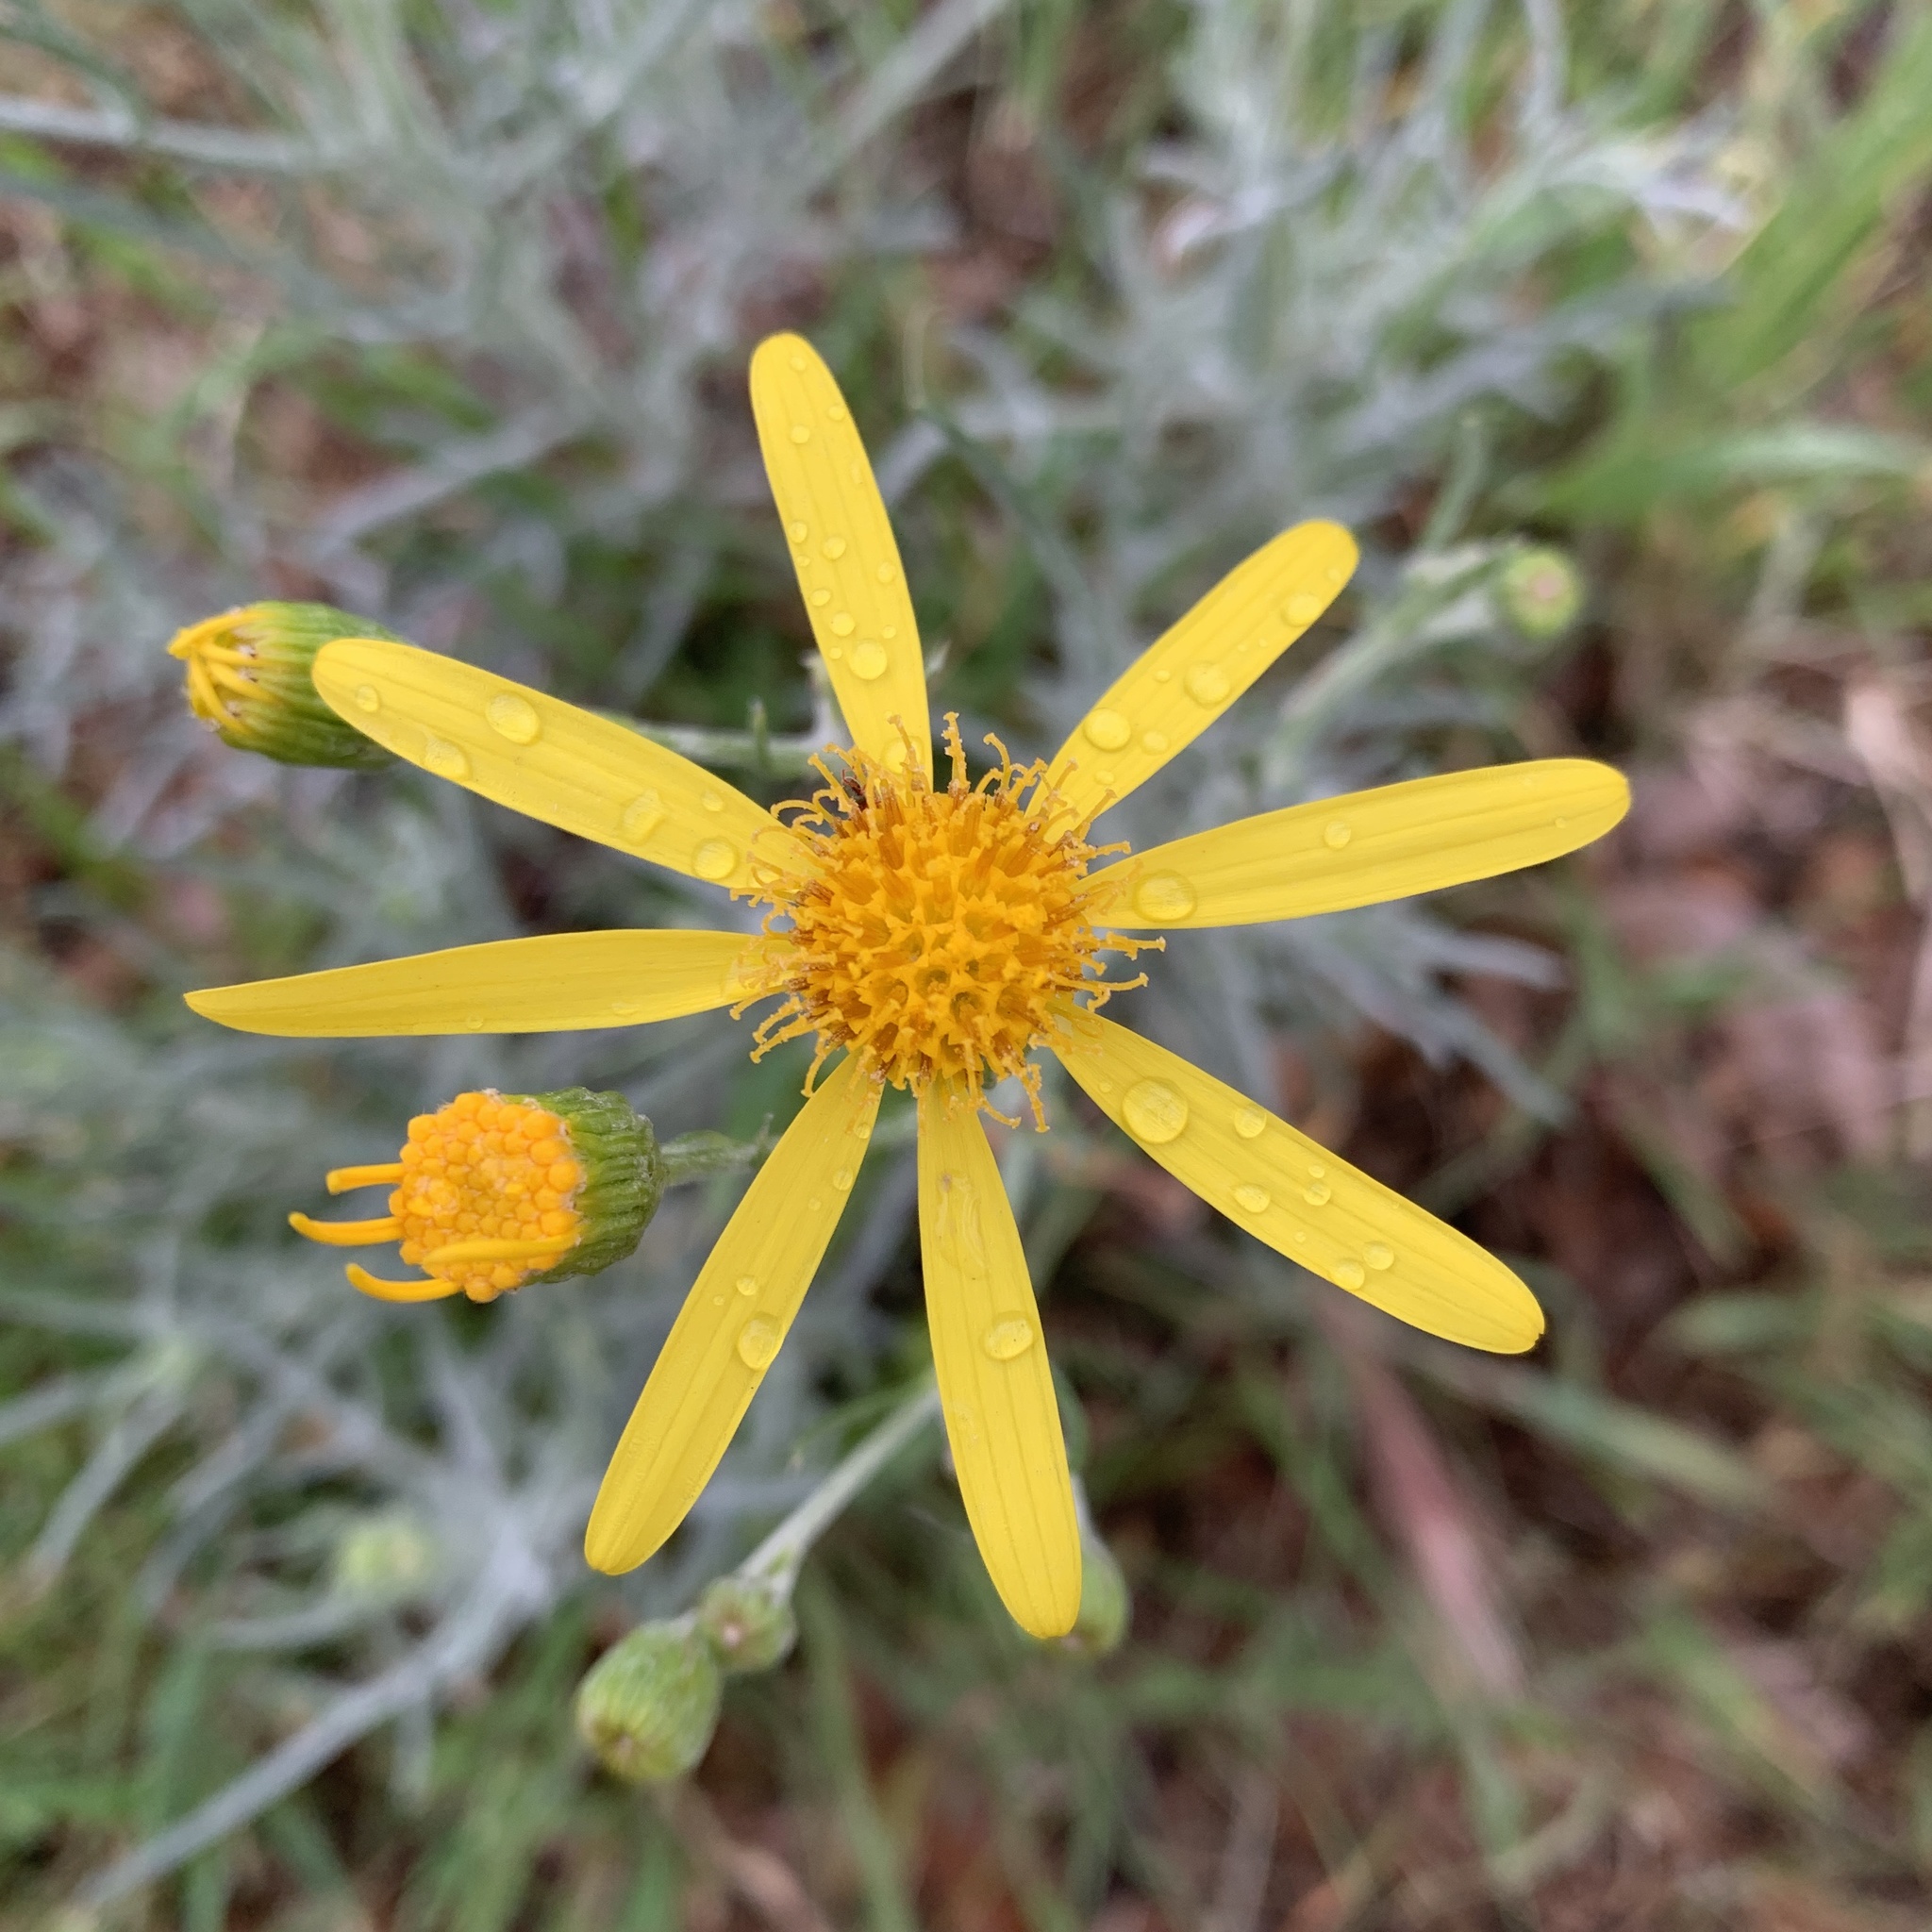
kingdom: Plantae
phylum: Tracheophyta
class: Magnoliopsida
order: Asterales
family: Asteraceae
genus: Senecio
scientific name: Senecio flaccidus
